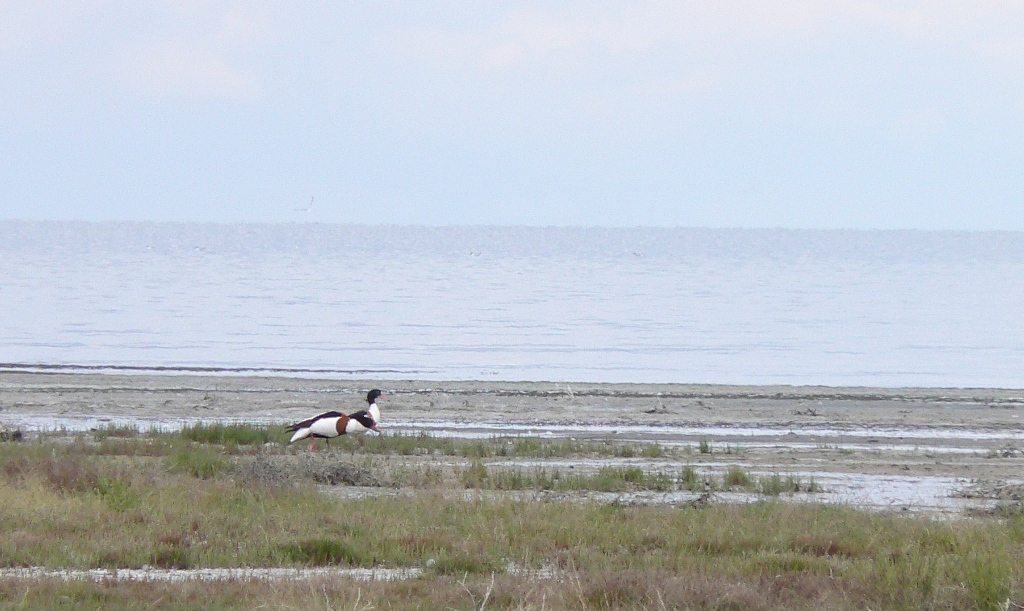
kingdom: Animalia
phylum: Chordata
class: Aves
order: Anseriformes
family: Anatidae
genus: Tadorna
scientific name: Tadorna tadorna
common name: Common shelduck
